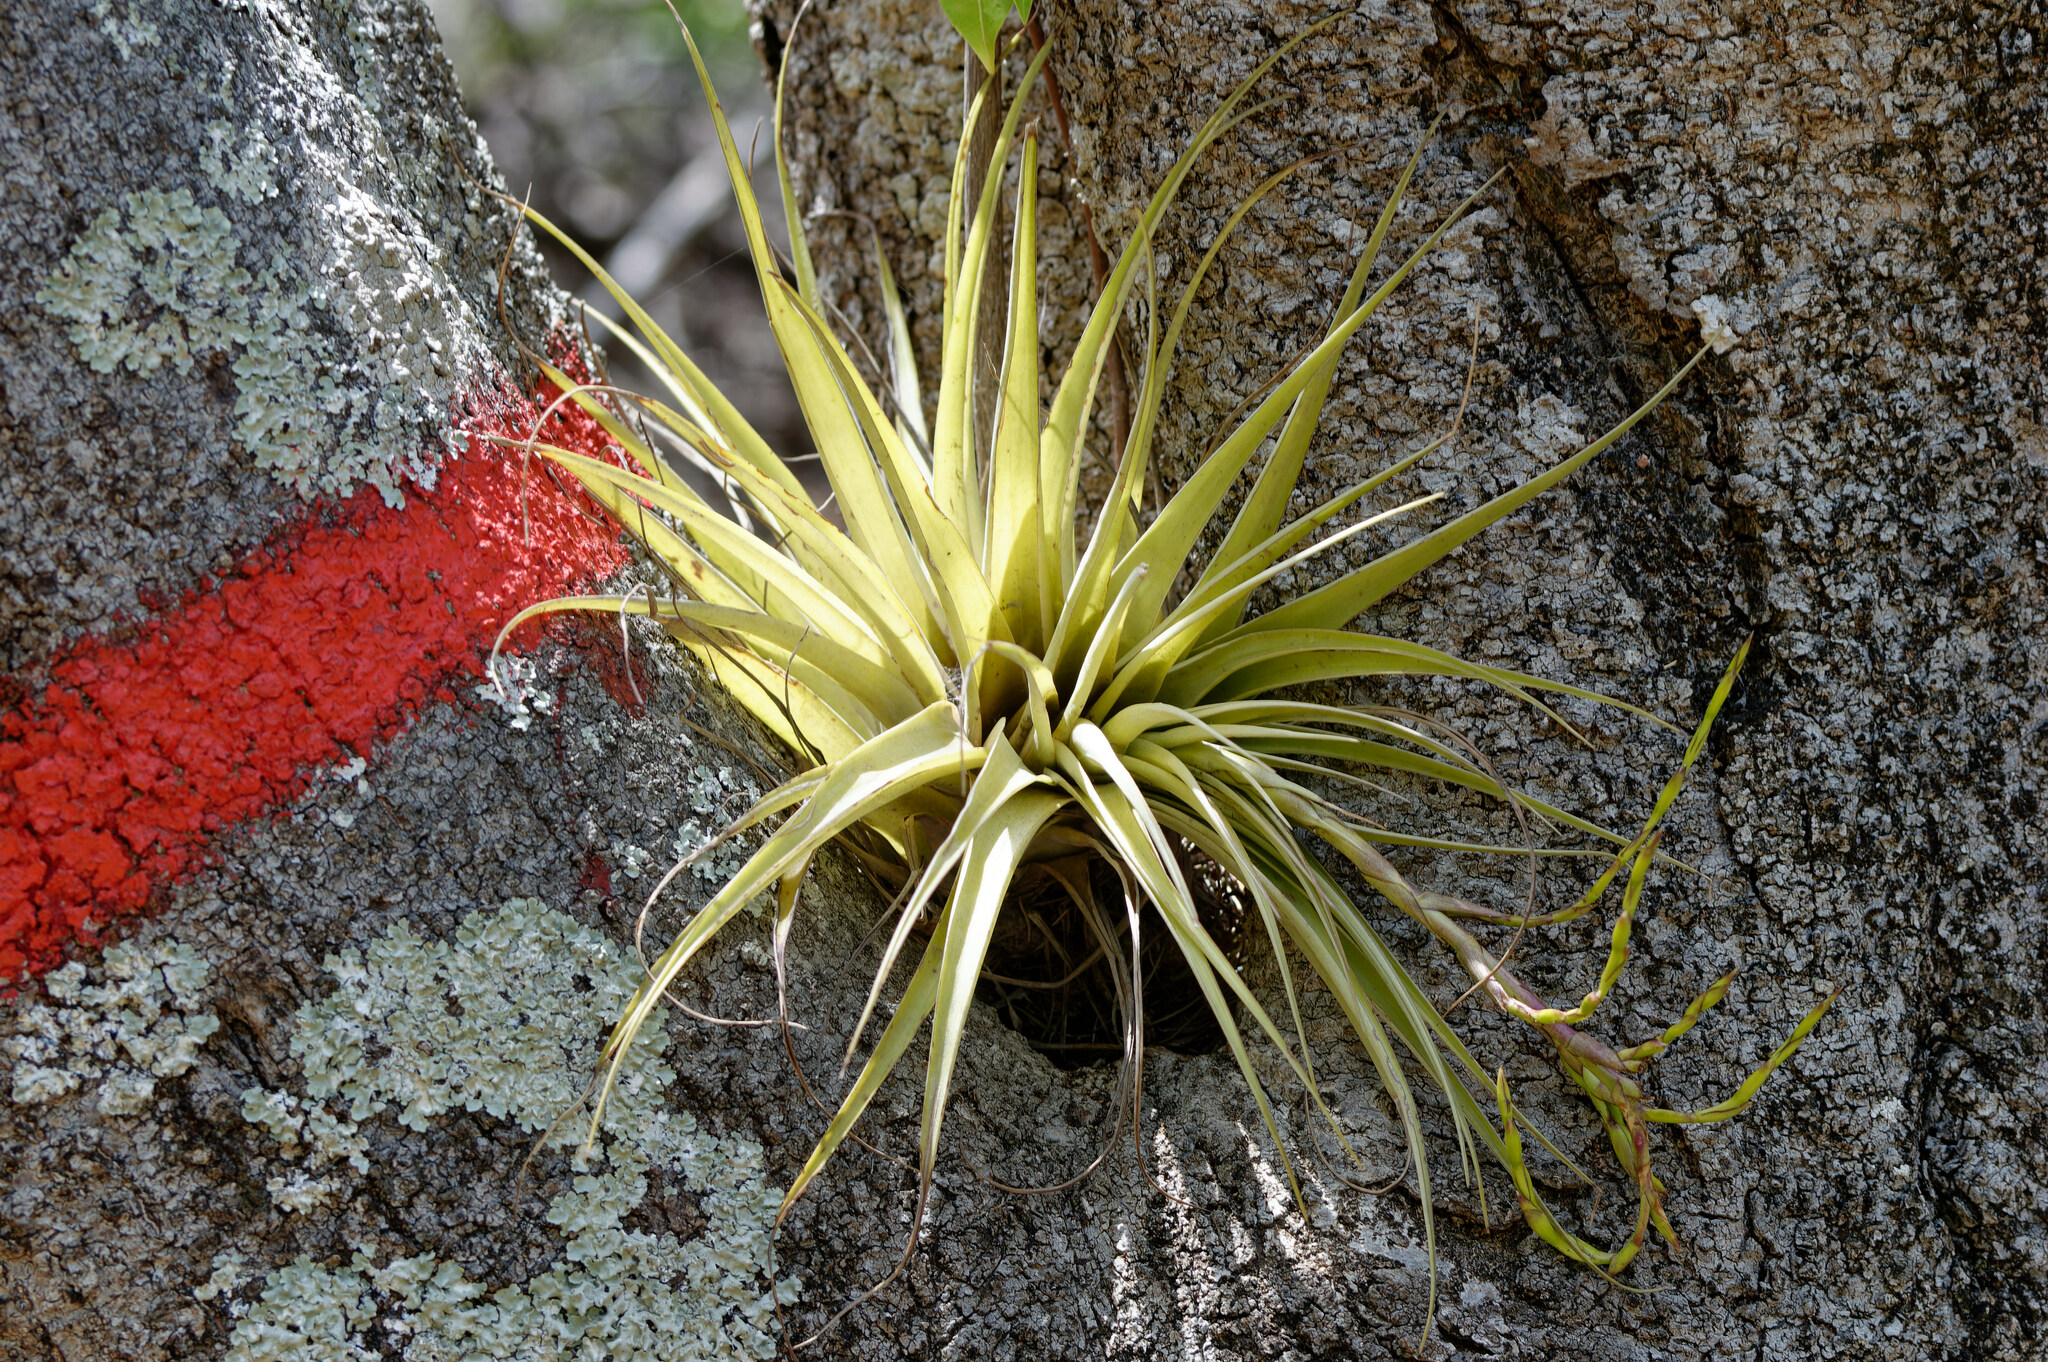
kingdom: Plantae
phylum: Tracheophyta
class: Liliopsida
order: Poales
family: Bromeliaceae
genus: Tillandsia
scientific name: Tillandsia utriculata
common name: Wild pine
